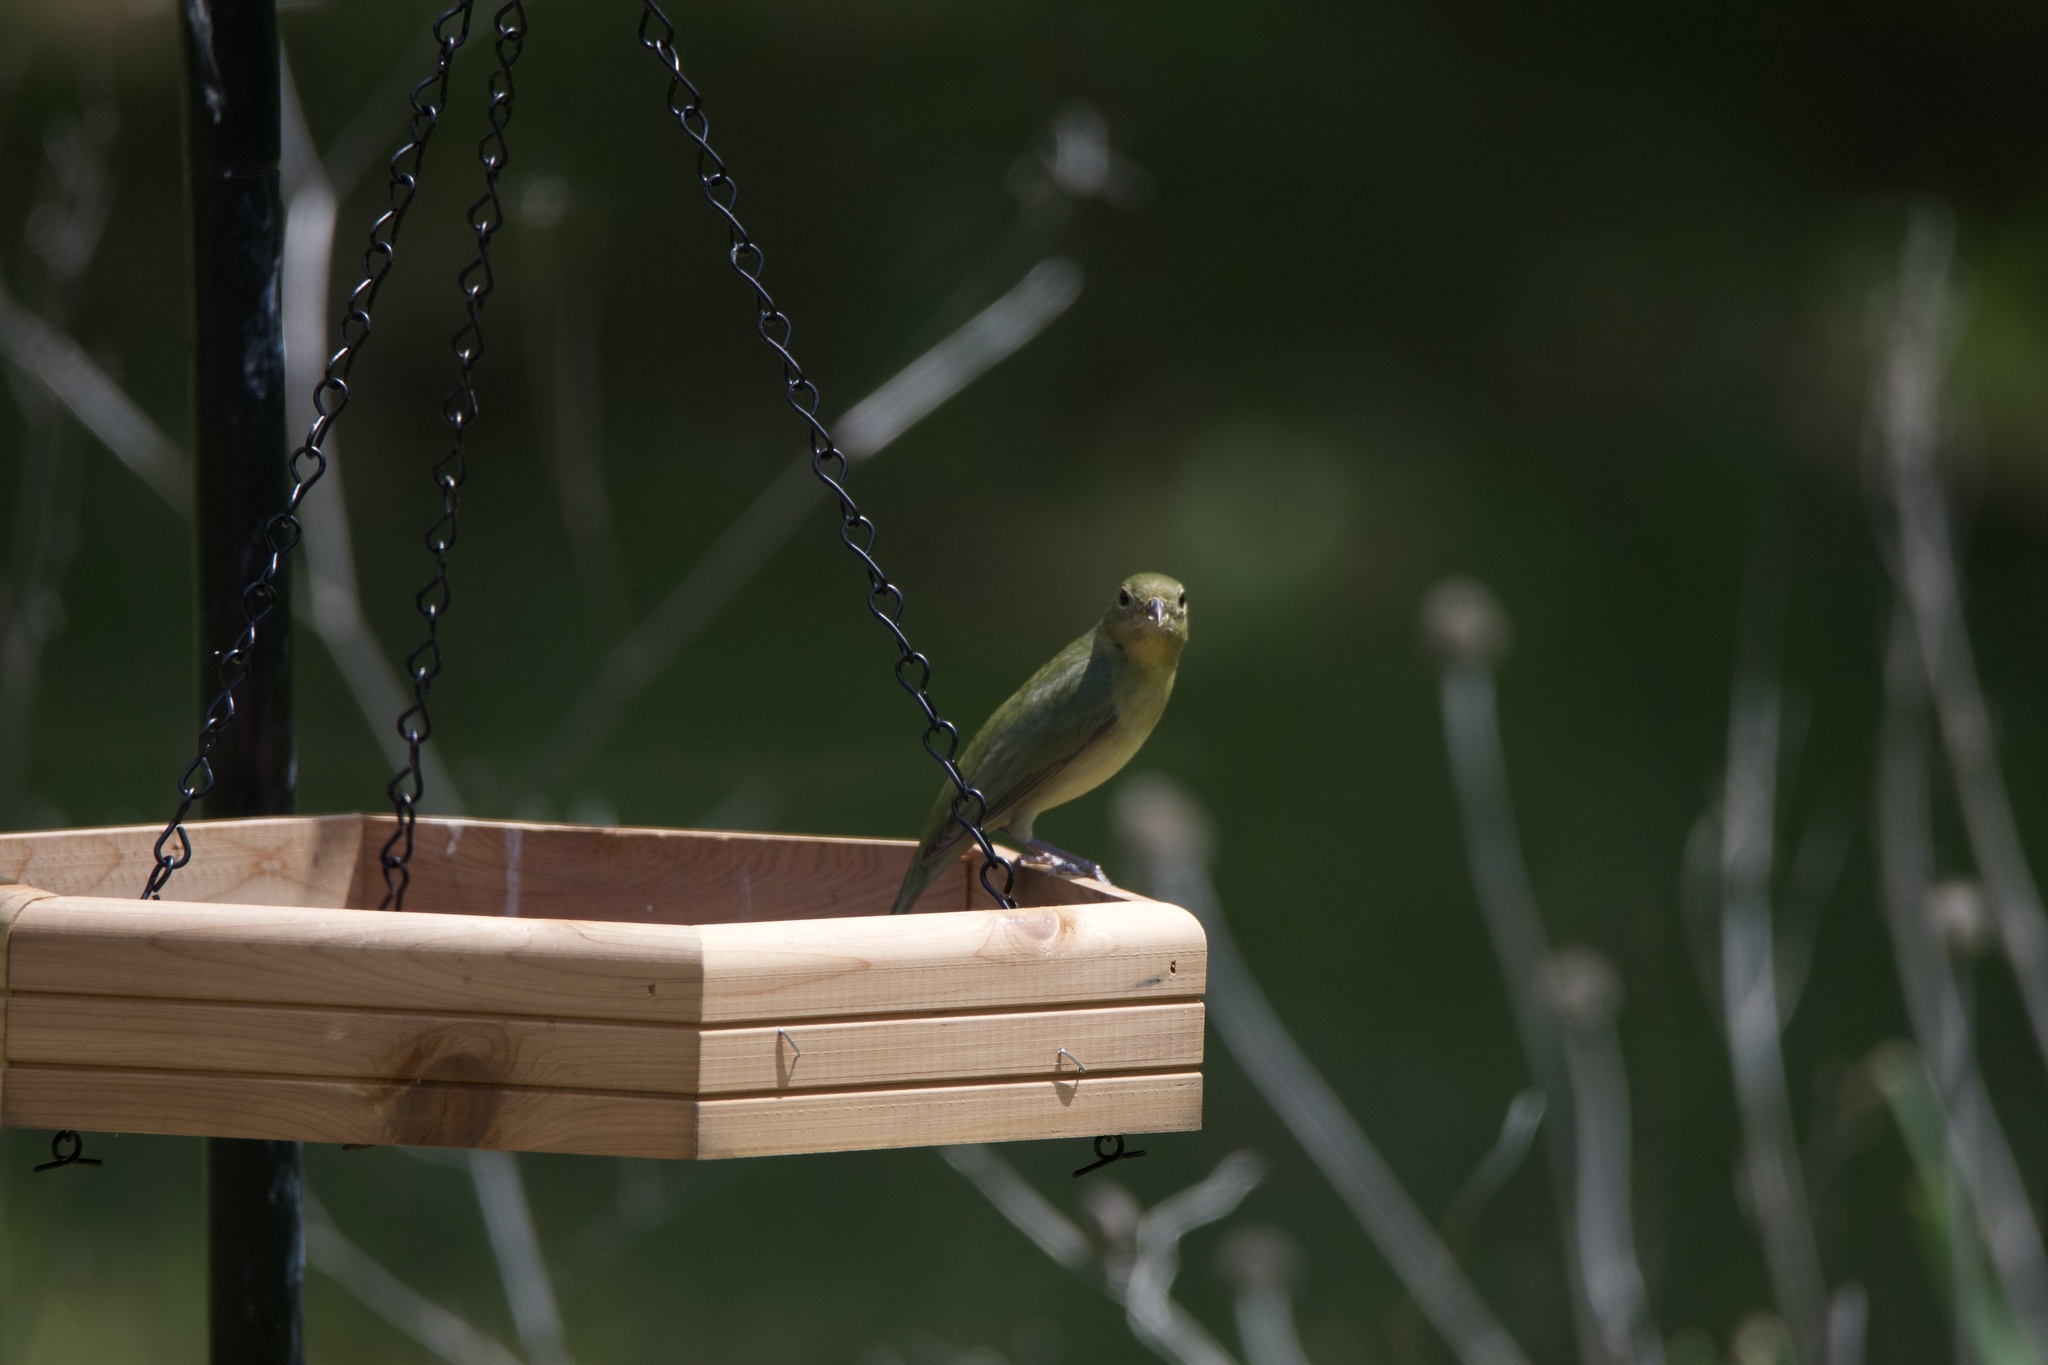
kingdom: Animalia
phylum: Chordata
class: Aves
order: Passeriformes
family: Cardinalidae
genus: Passerina
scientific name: Passerina ciris
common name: Painted bunting
